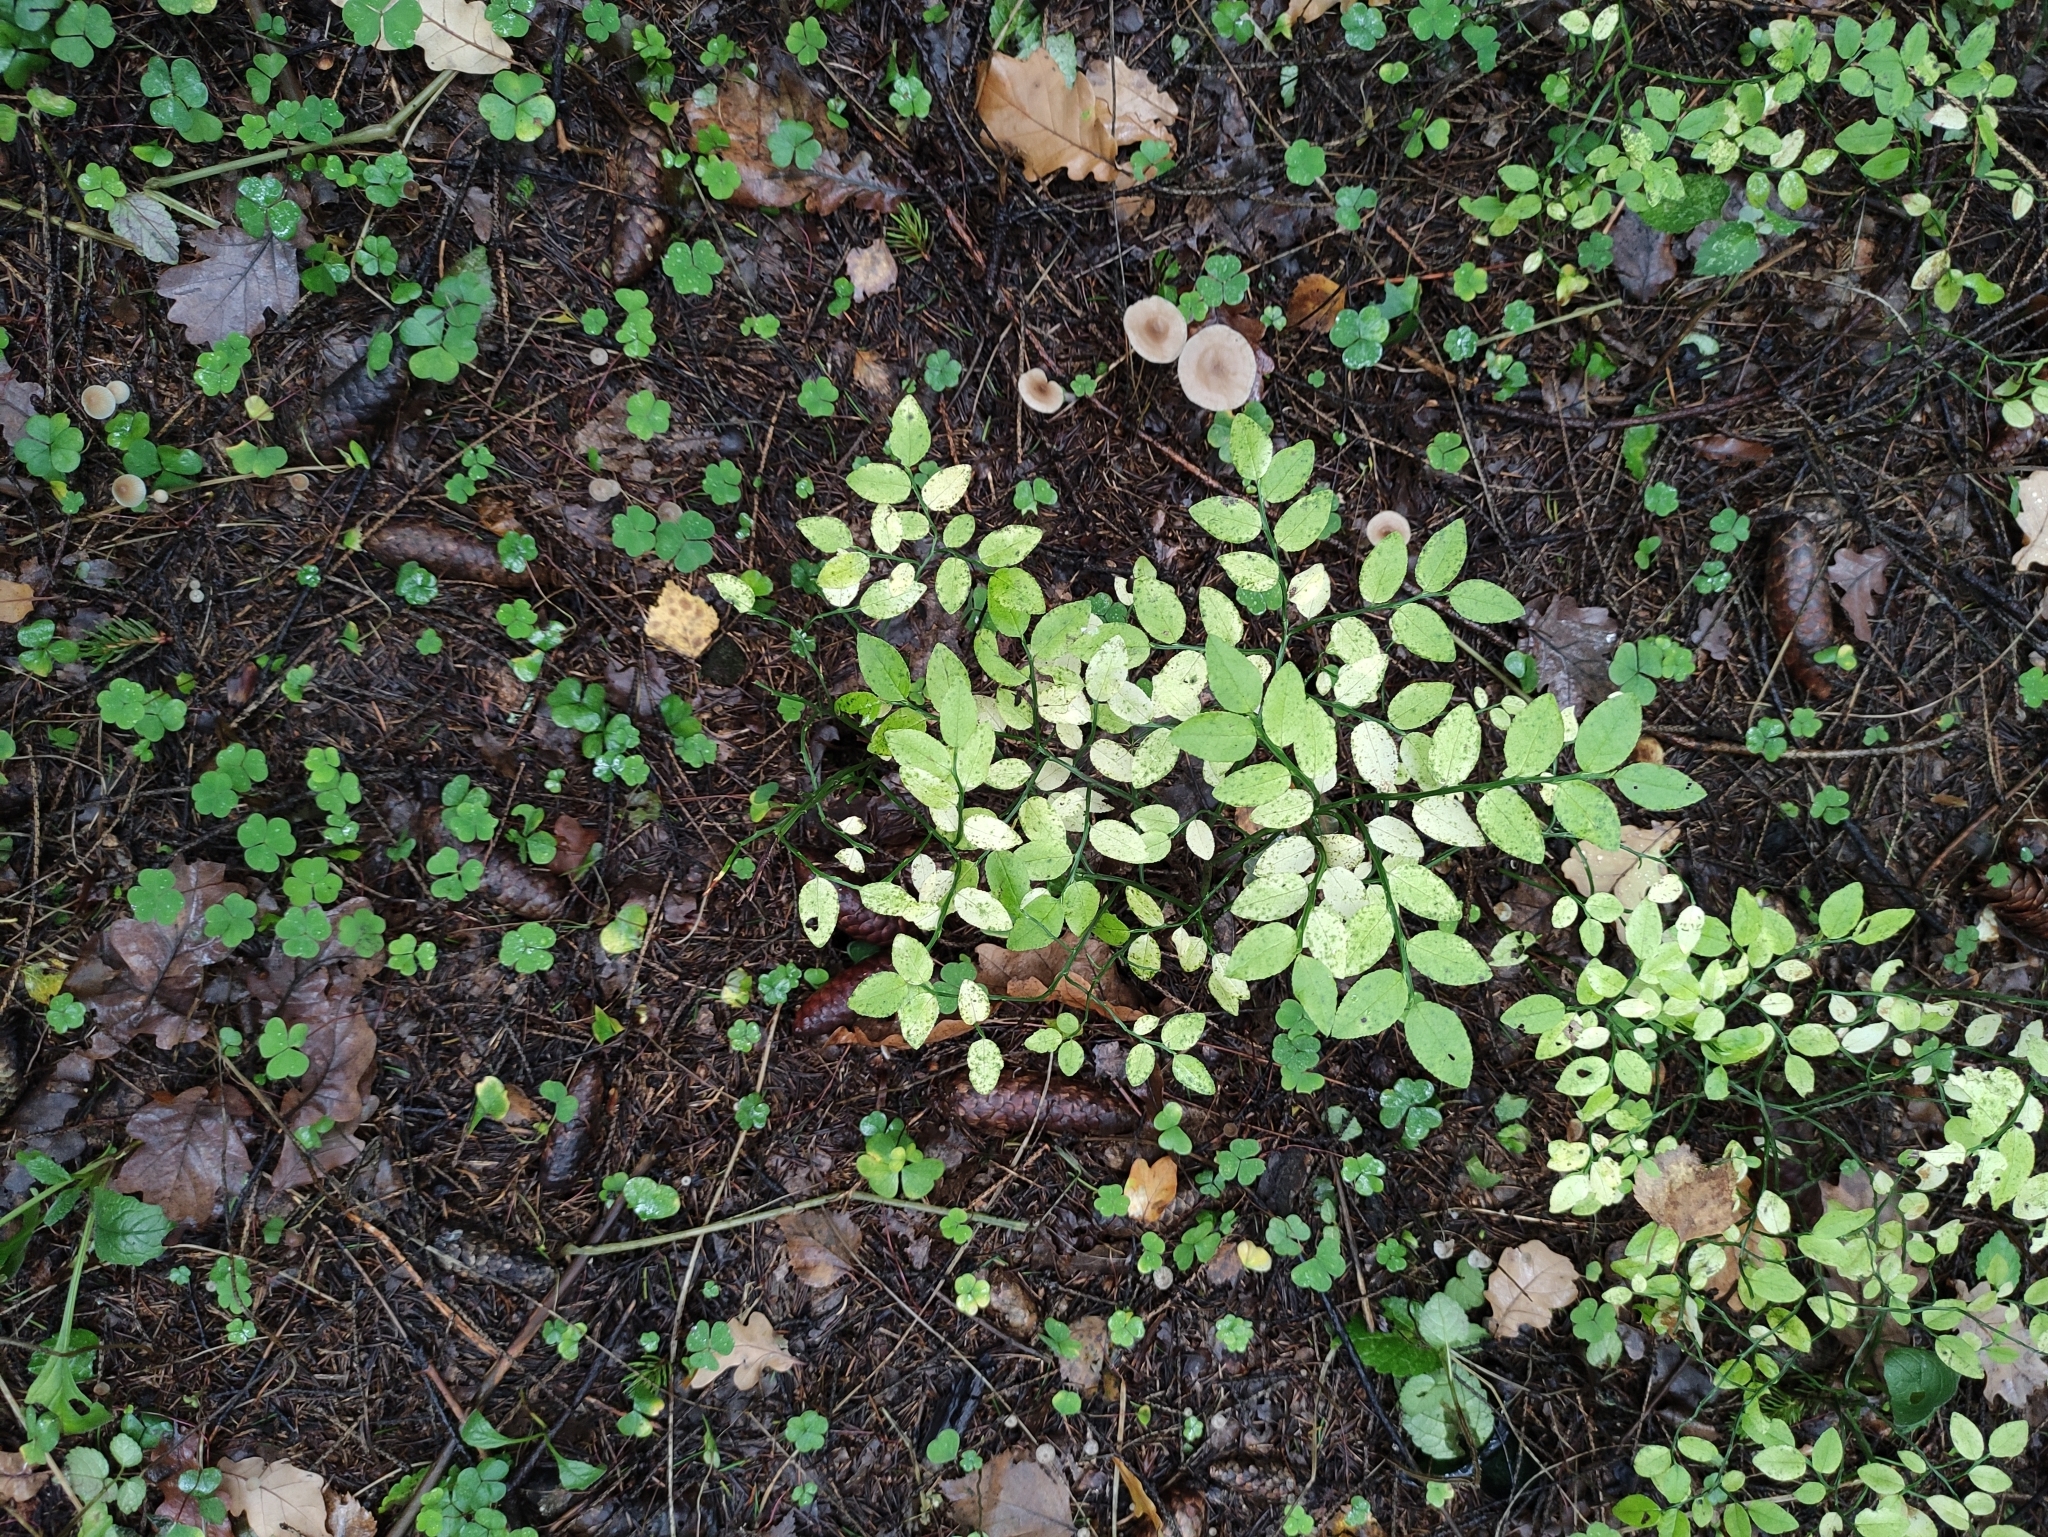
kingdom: Plantae
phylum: Tracheophyta
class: Magnoliopsida
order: Ericales
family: Ericaceae
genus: Vaccinium
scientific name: Vaccinium myrtillus
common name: Bilberry
